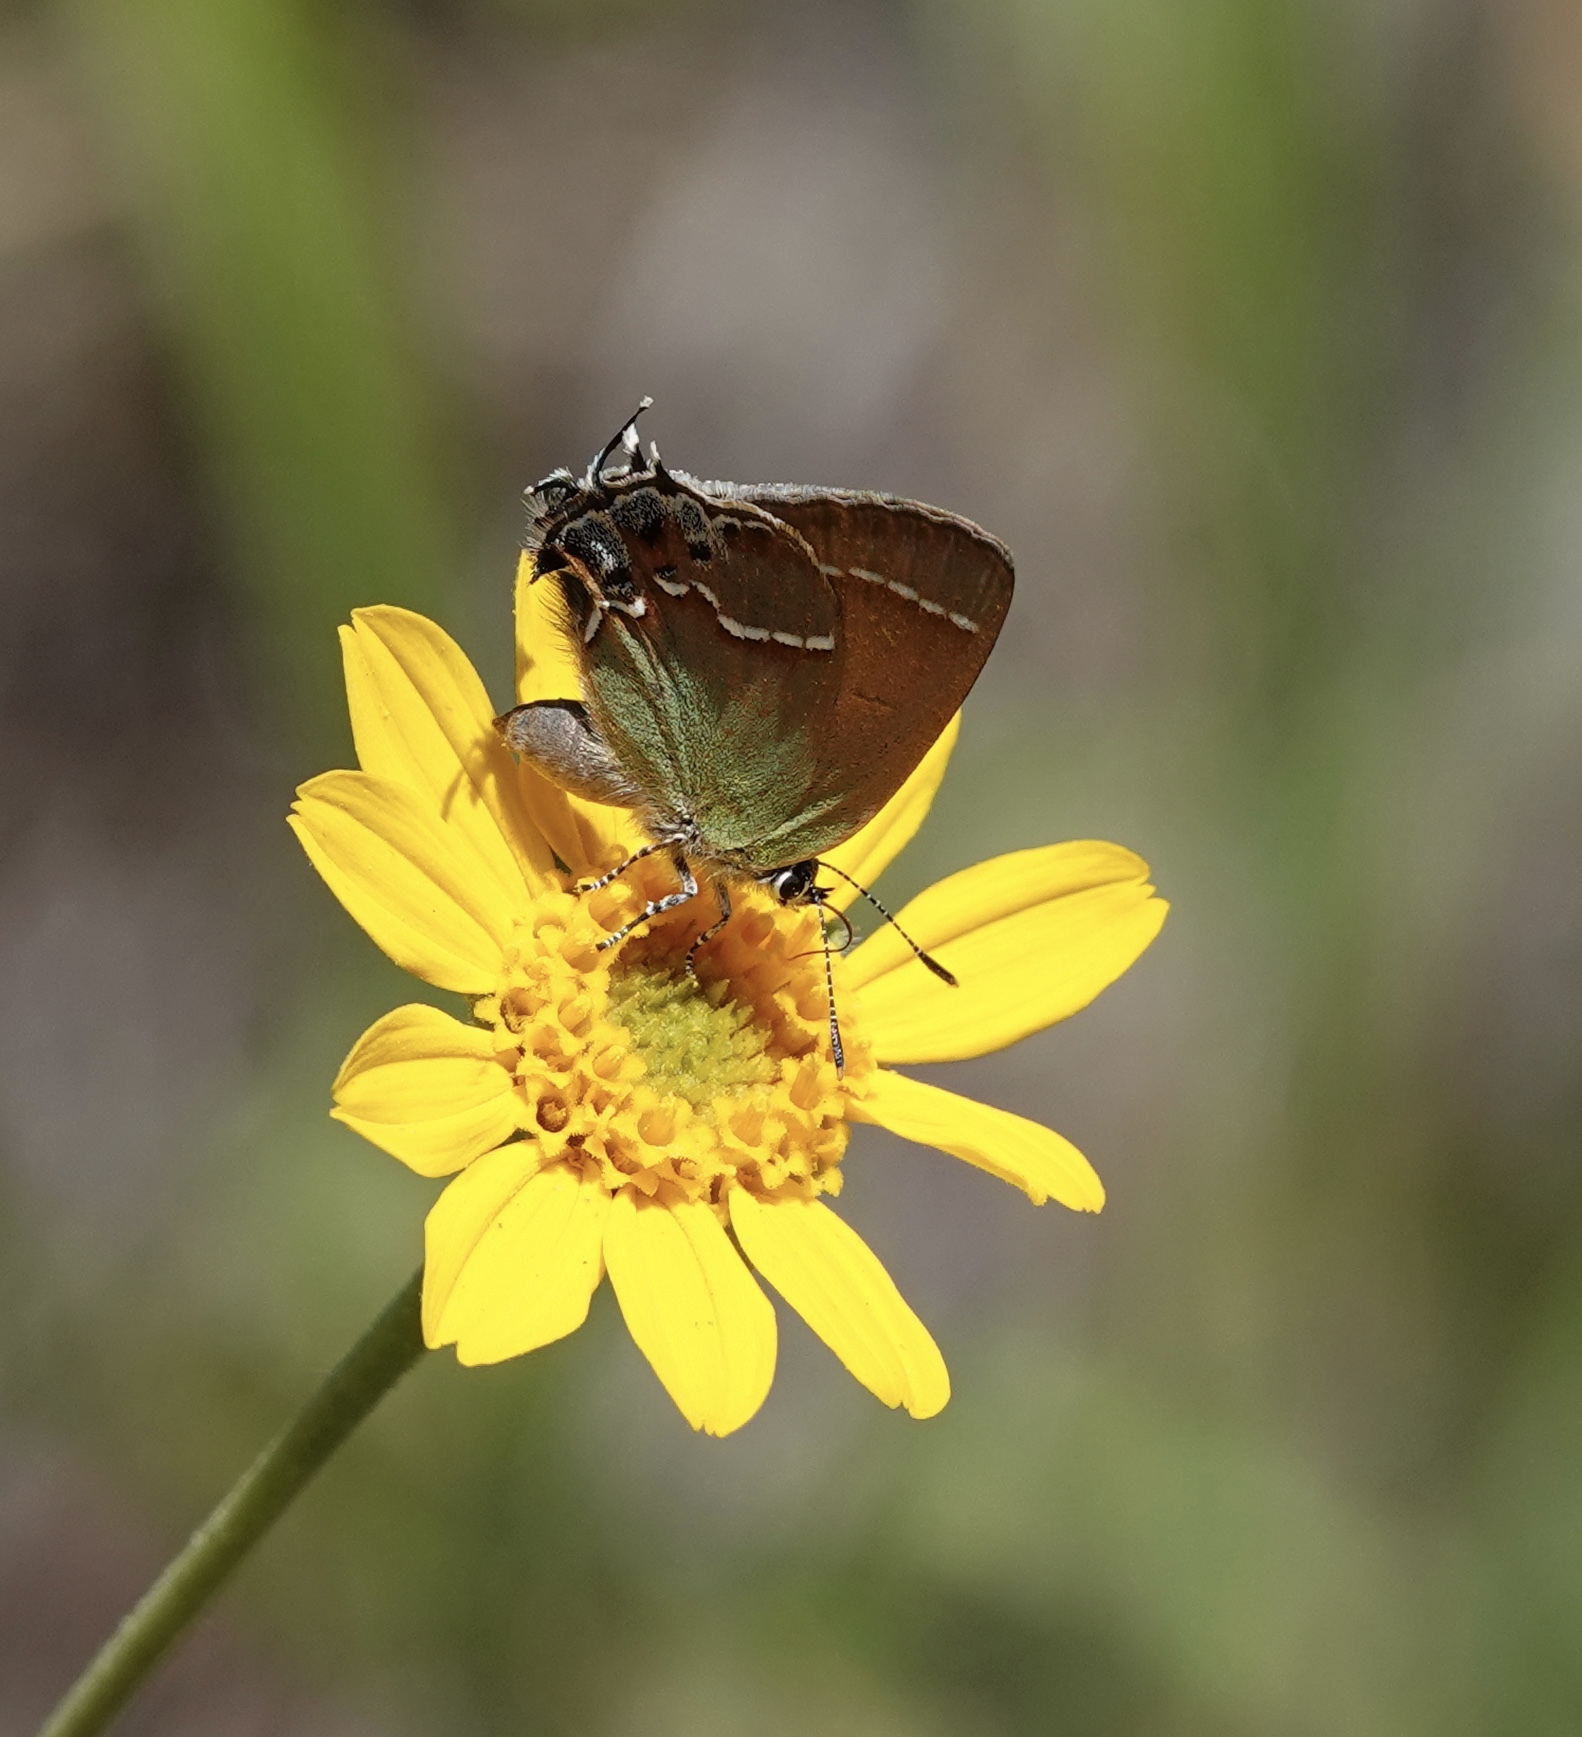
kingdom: Animalia
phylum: Arthropoda
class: Insecta
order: Lepidoptera
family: Lycaenidae
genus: Mitoura
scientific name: Mitoura siva
